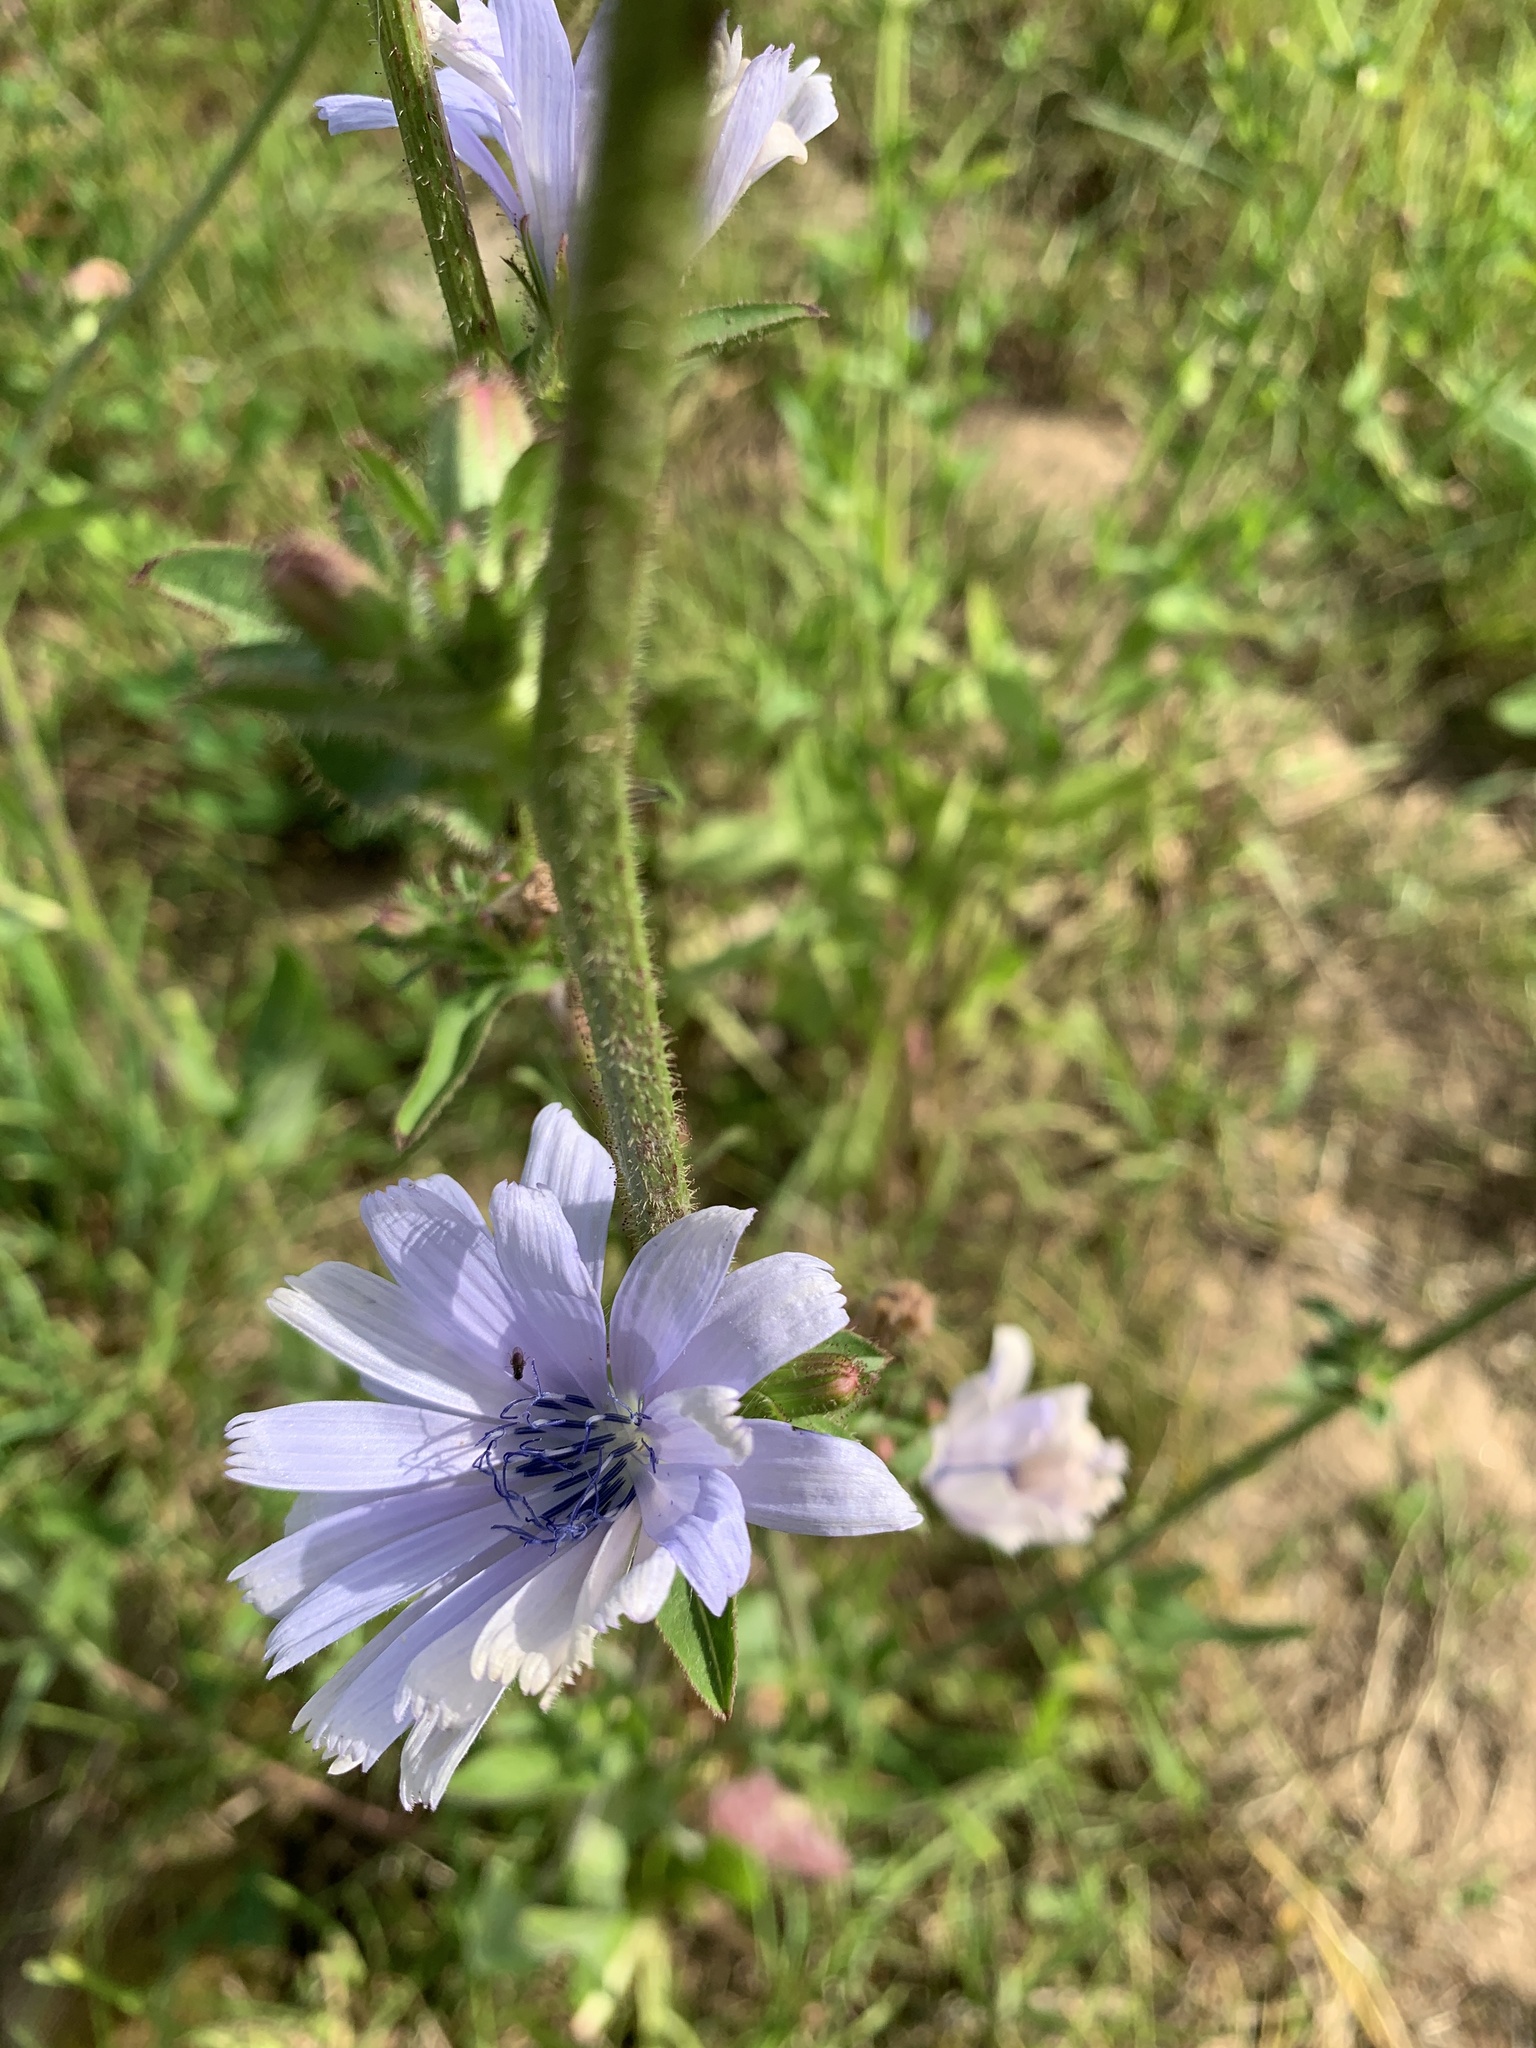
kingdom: Plantae
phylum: Tracheophyta
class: Magnoliopsida
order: Asterales
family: Asteraceae
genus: Cichorium
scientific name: Cichorium intybus
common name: Chicory
